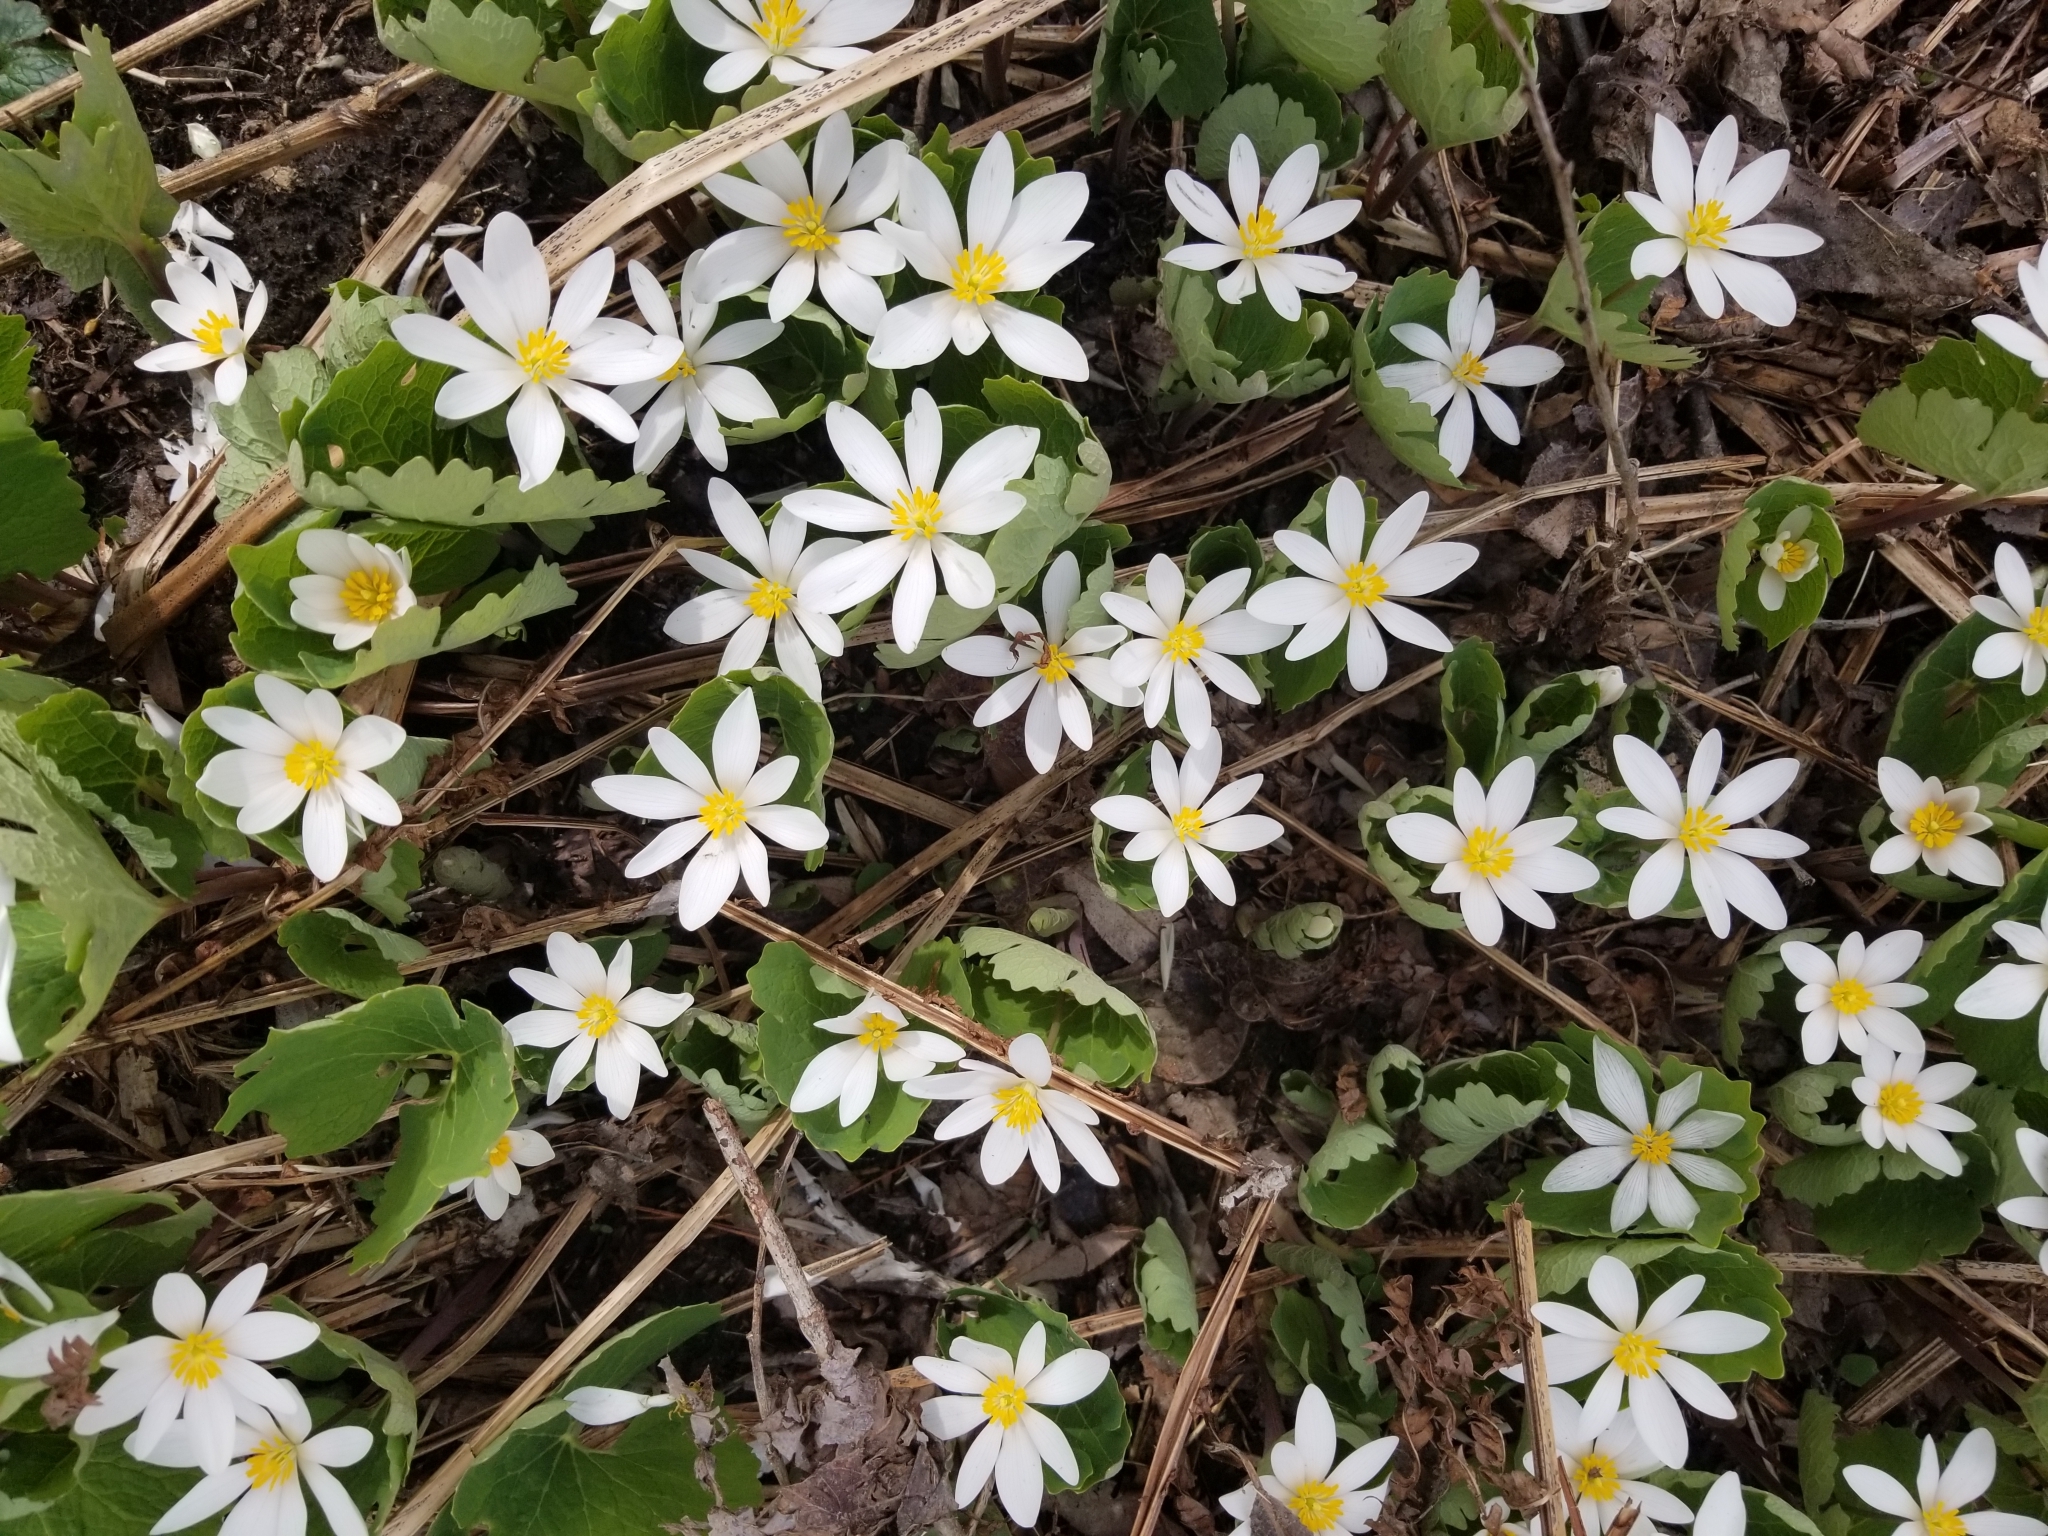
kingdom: Plantae
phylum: Tracheophyta
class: Magnoliopsida
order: Ranunculales
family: Papaveraceae
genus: Sanguinaria
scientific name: Sanguinaria canadensis
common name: Bloodroot
